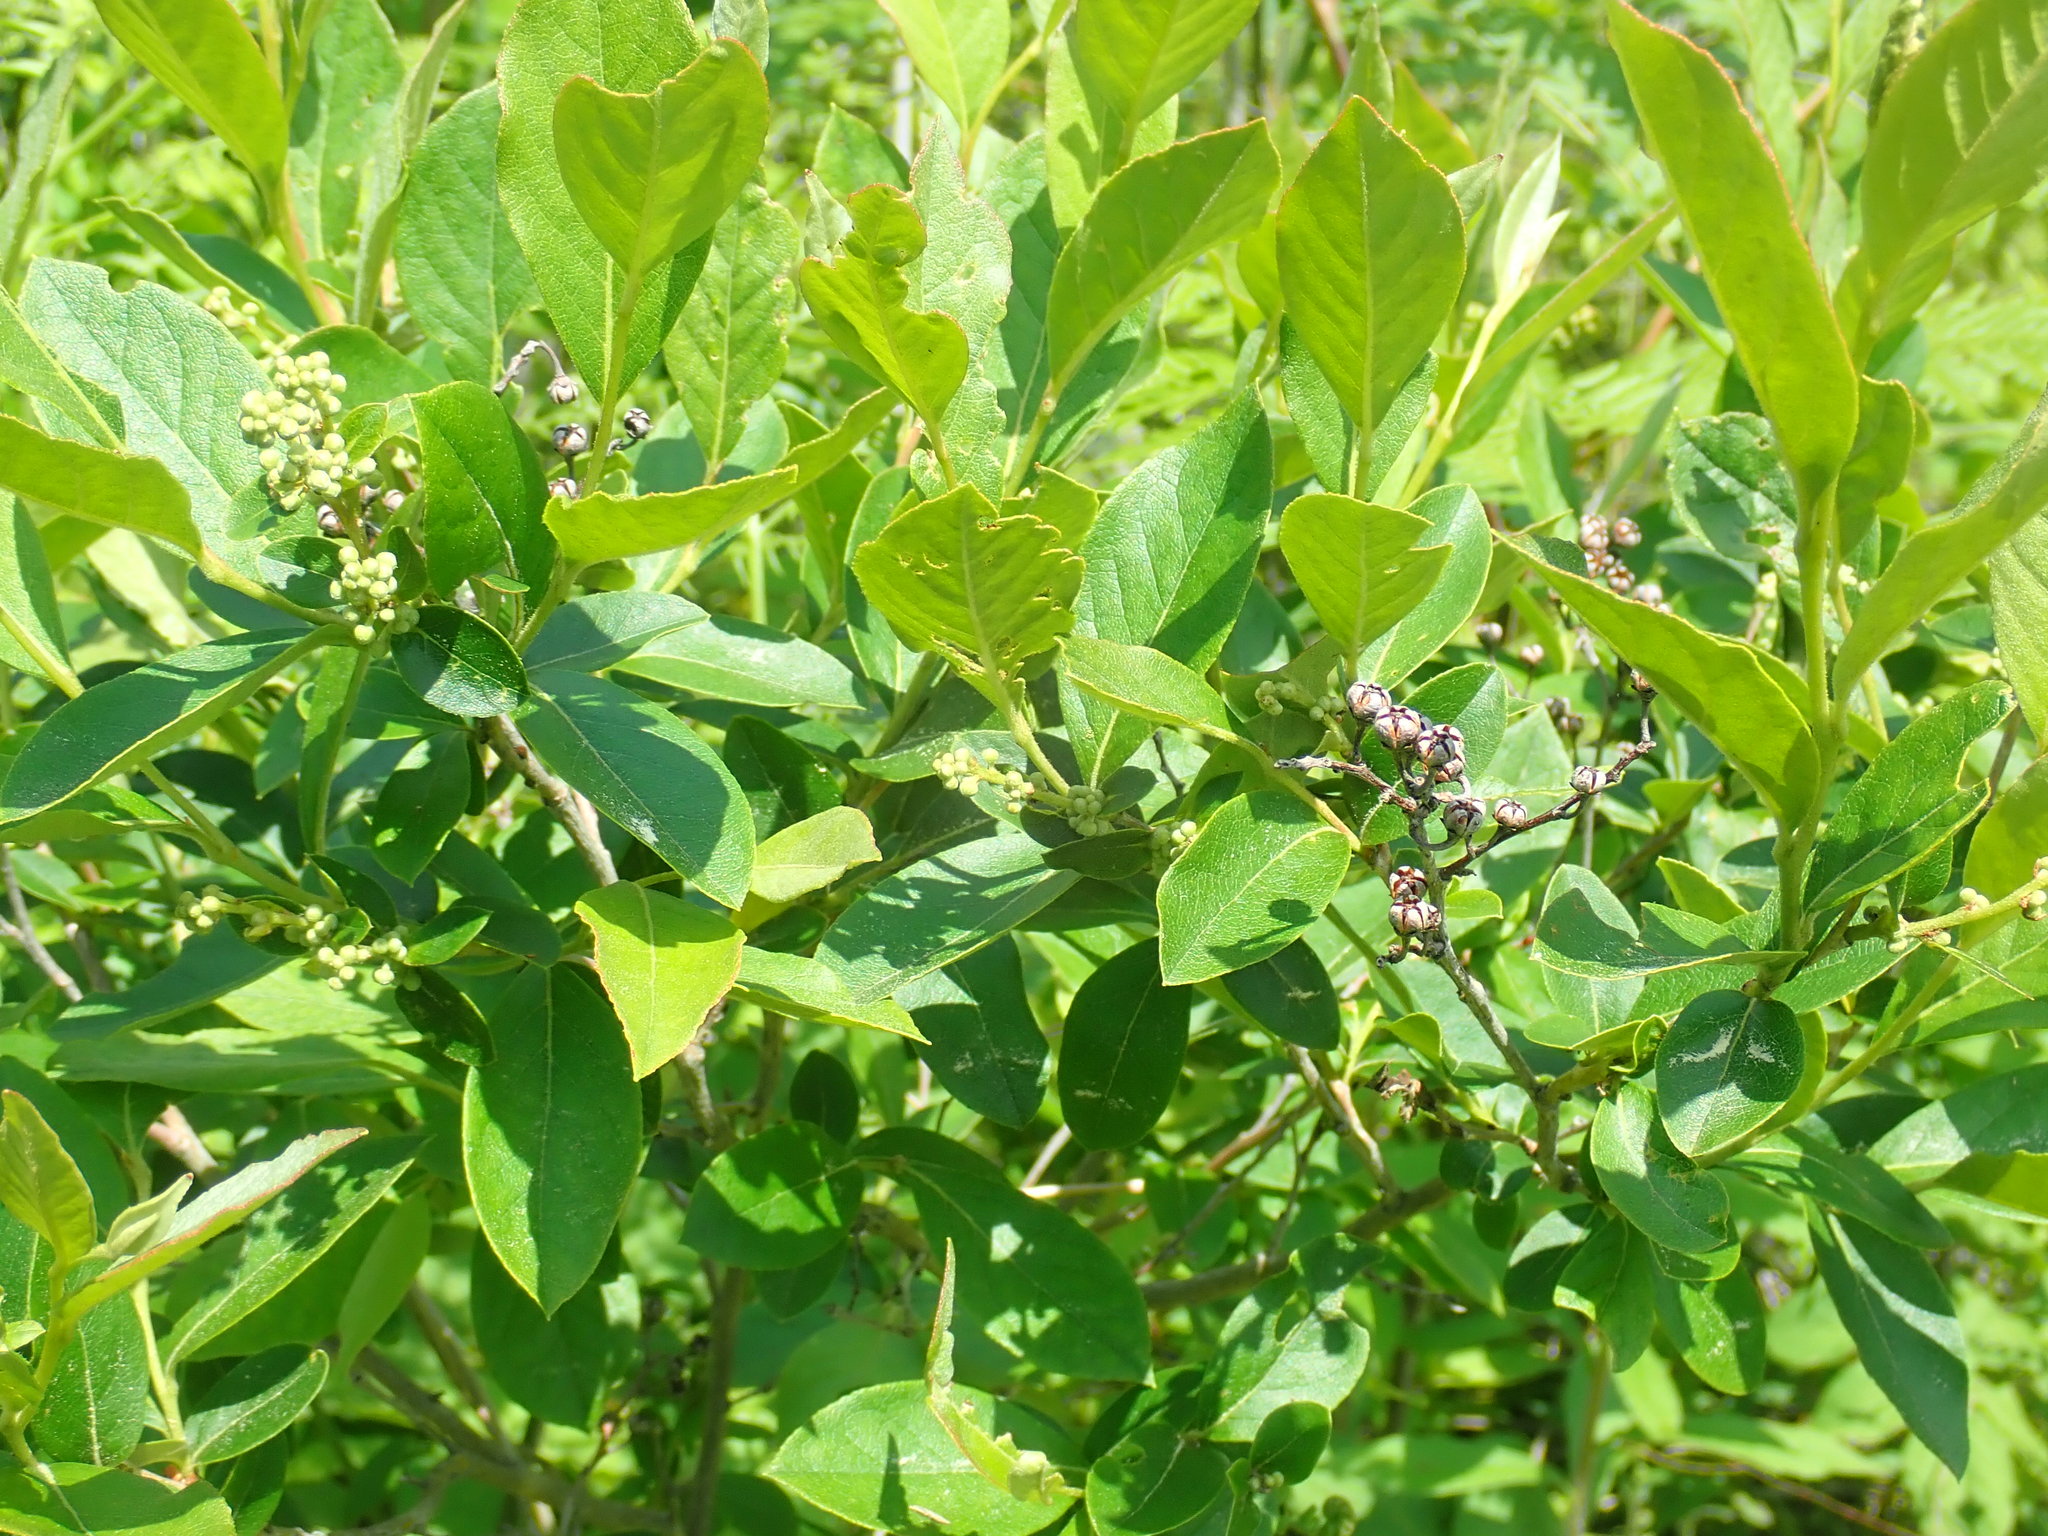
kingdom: Plantae
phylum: Tracheophyta
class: Magnoliopsida
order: Ericales
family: Ericaceae
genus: Lyonia
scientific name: Lyonia ligustrina
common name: Maleberry
